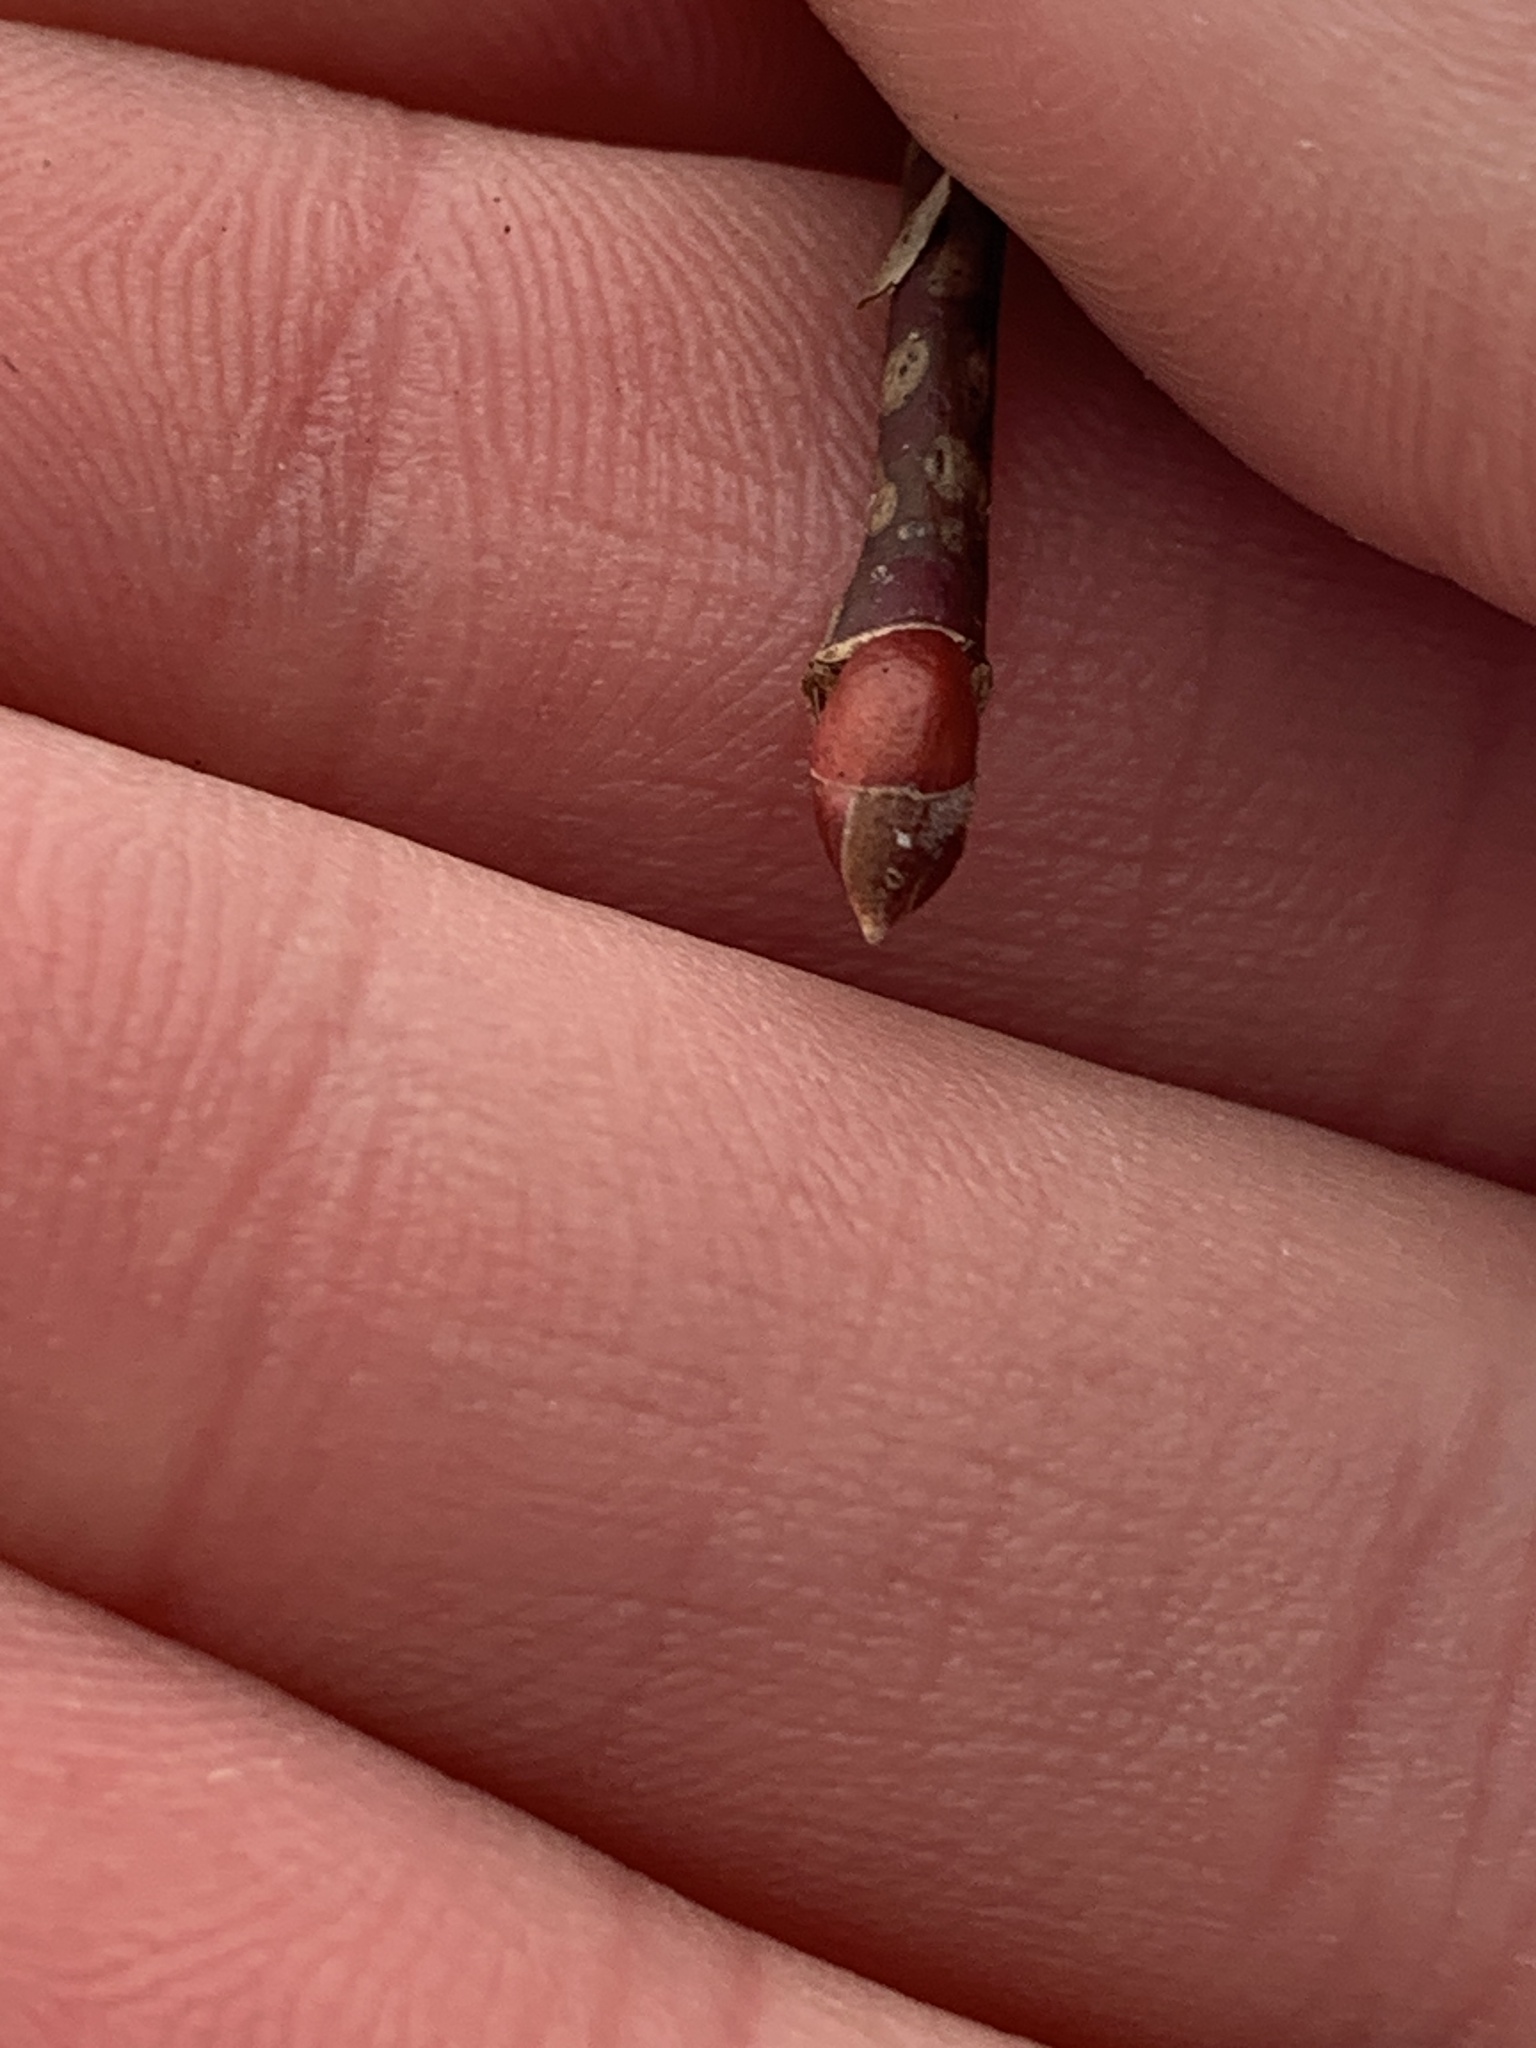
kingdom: Plantae
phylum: Tracheophyta
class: Magnoliopsida
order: Malvales
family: Malvaceae
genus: Tilia
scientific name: Tilia americana
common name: Basswood
